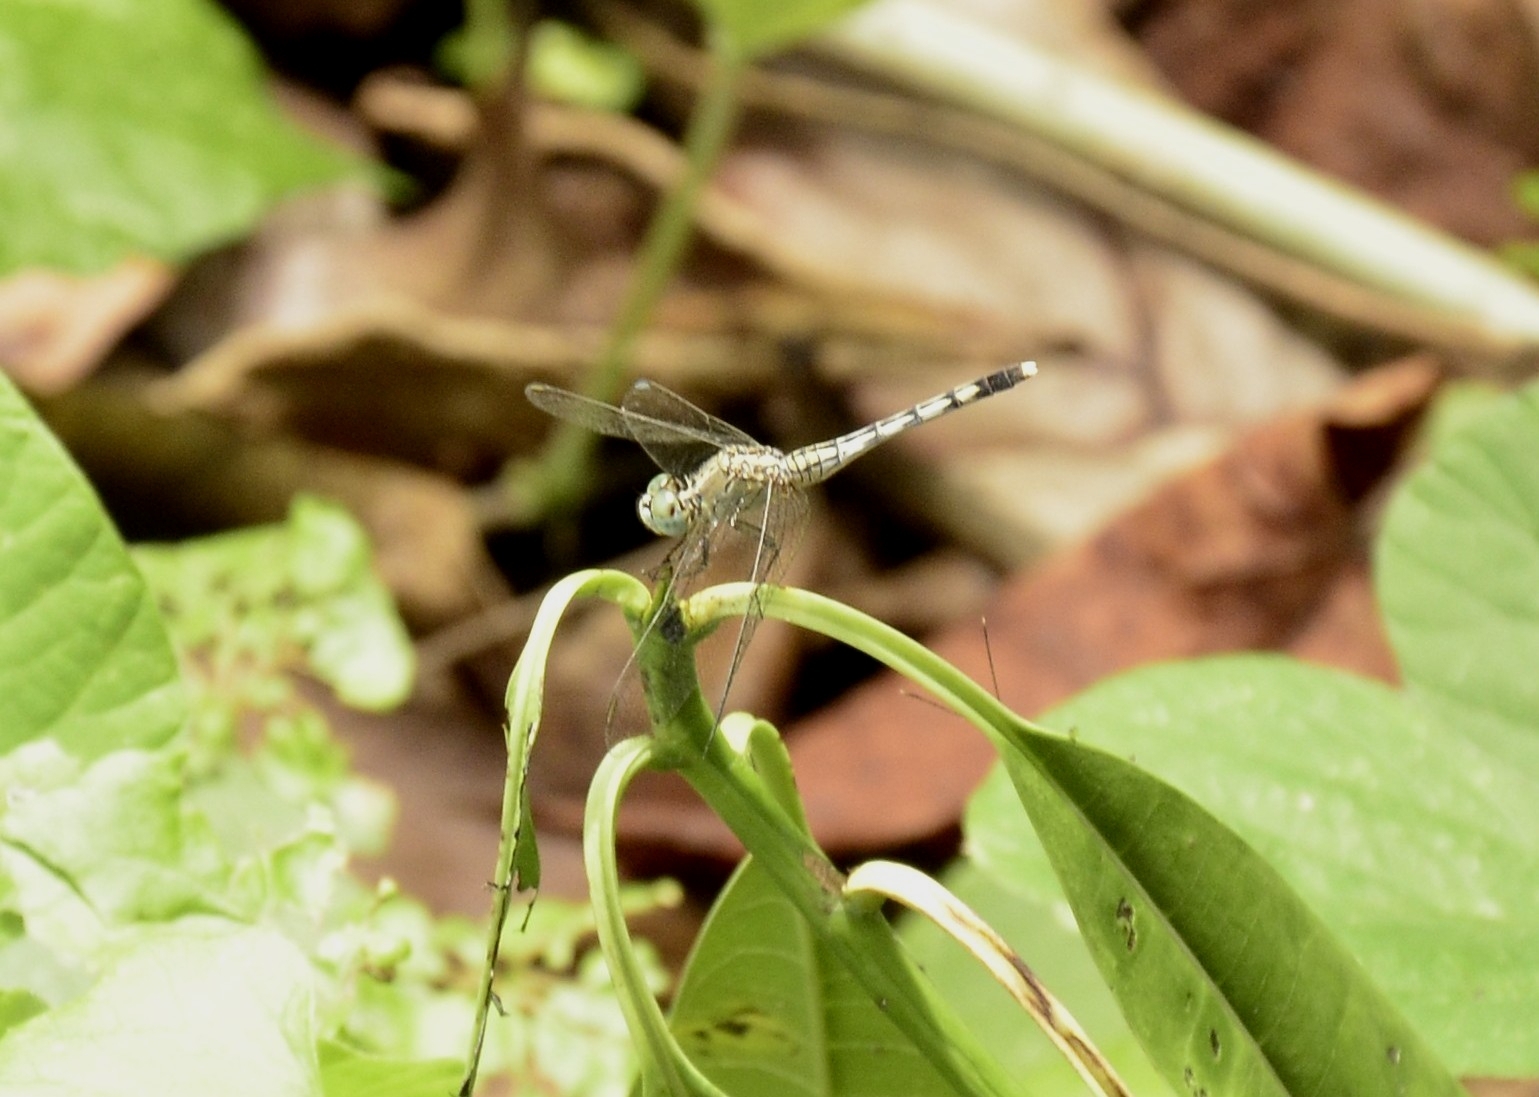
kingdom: Animalia
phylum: Arthropoda
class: Insecta
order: Odonata
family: Libellulidae
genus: Diplacodes
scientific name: Diplacodes trivialis
